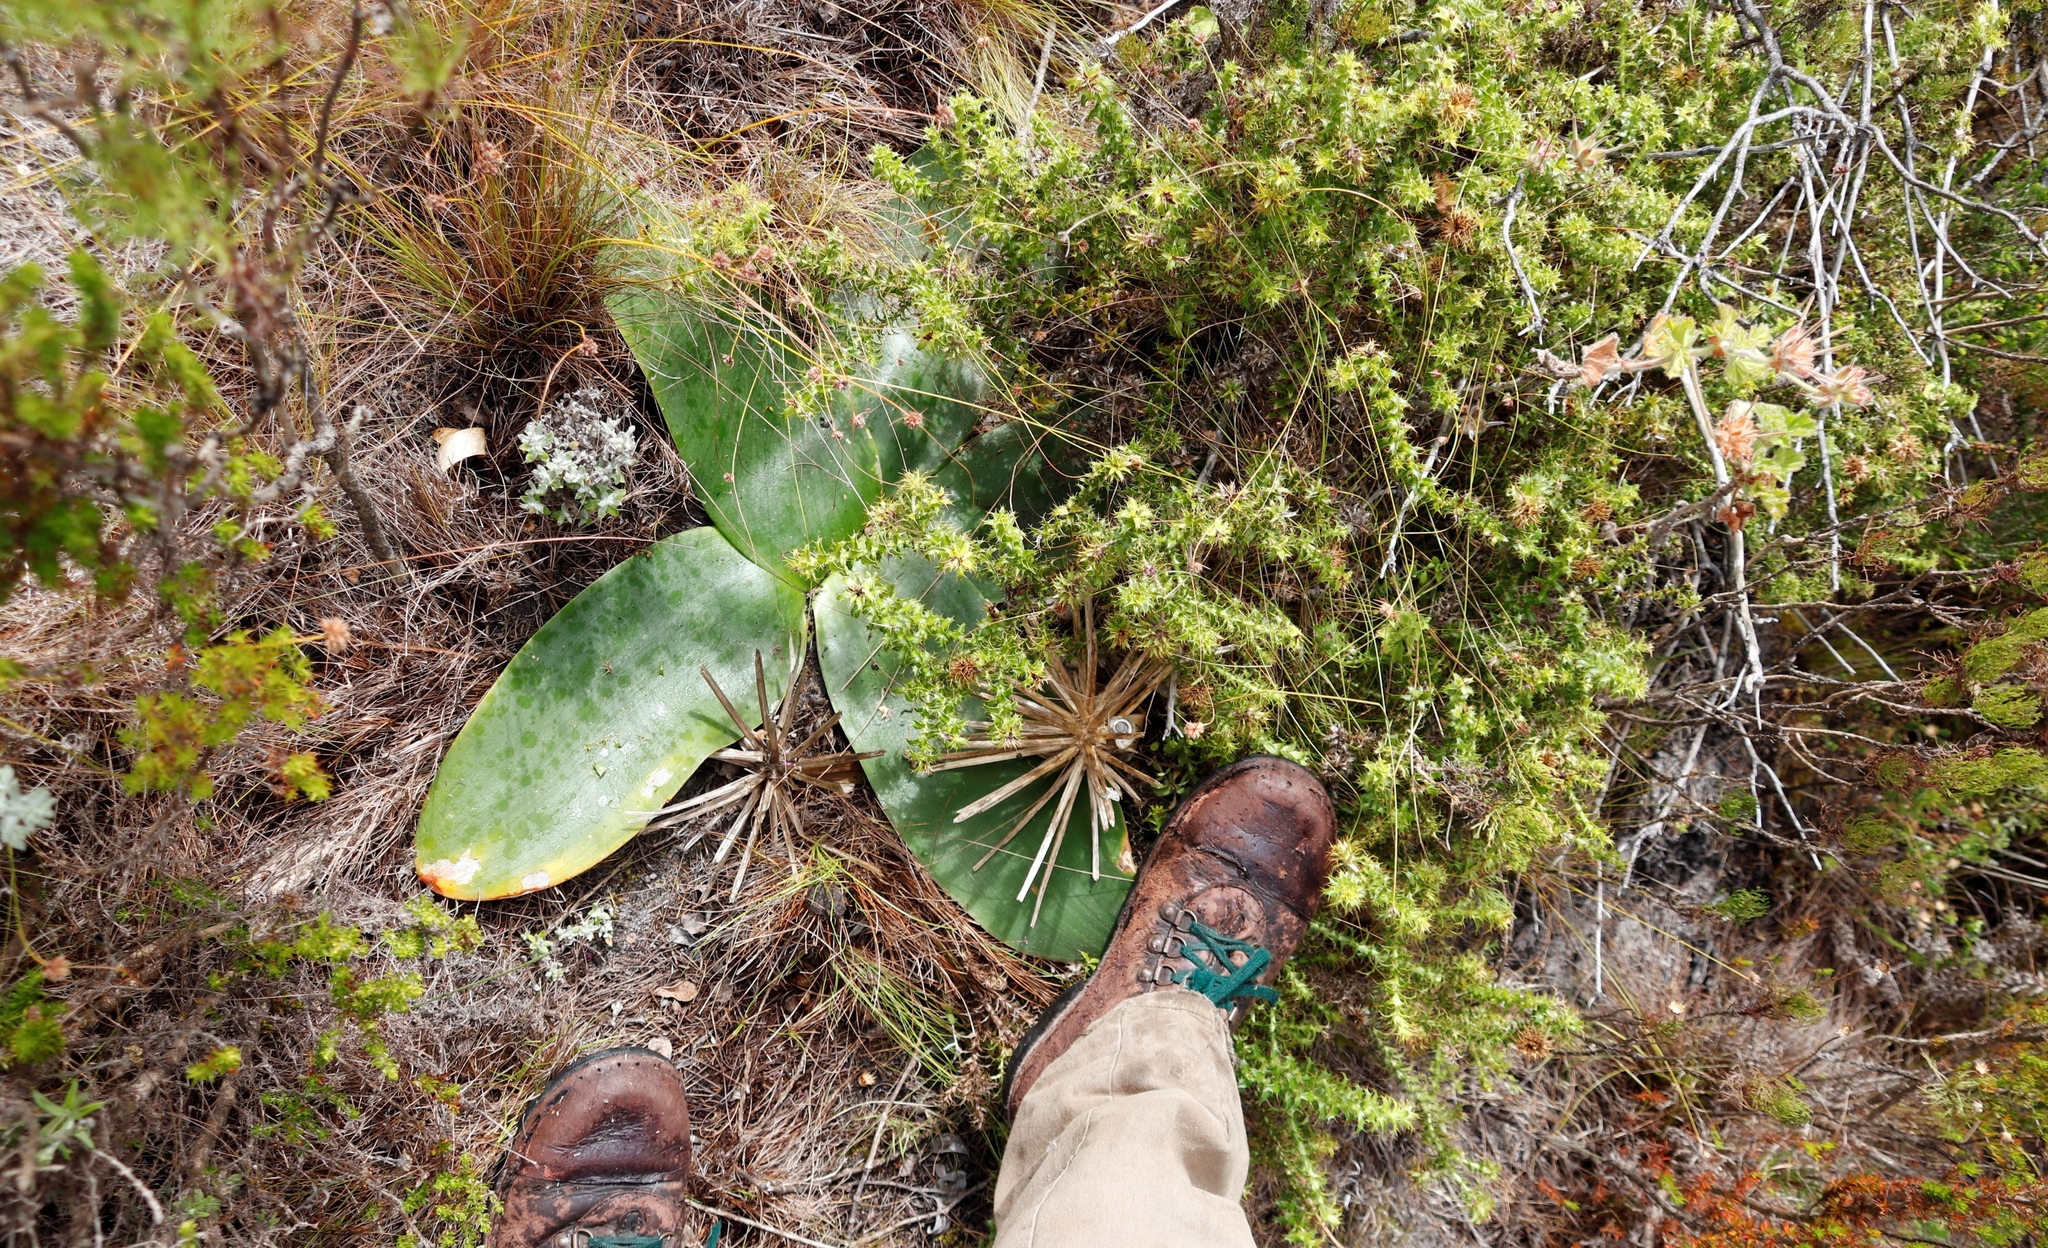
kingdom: Plantae
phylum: Tracheophyta
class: Magnoliopsida
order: Asterales
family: Asteraceae
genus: Cullumia
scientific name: Cullumia setosa
